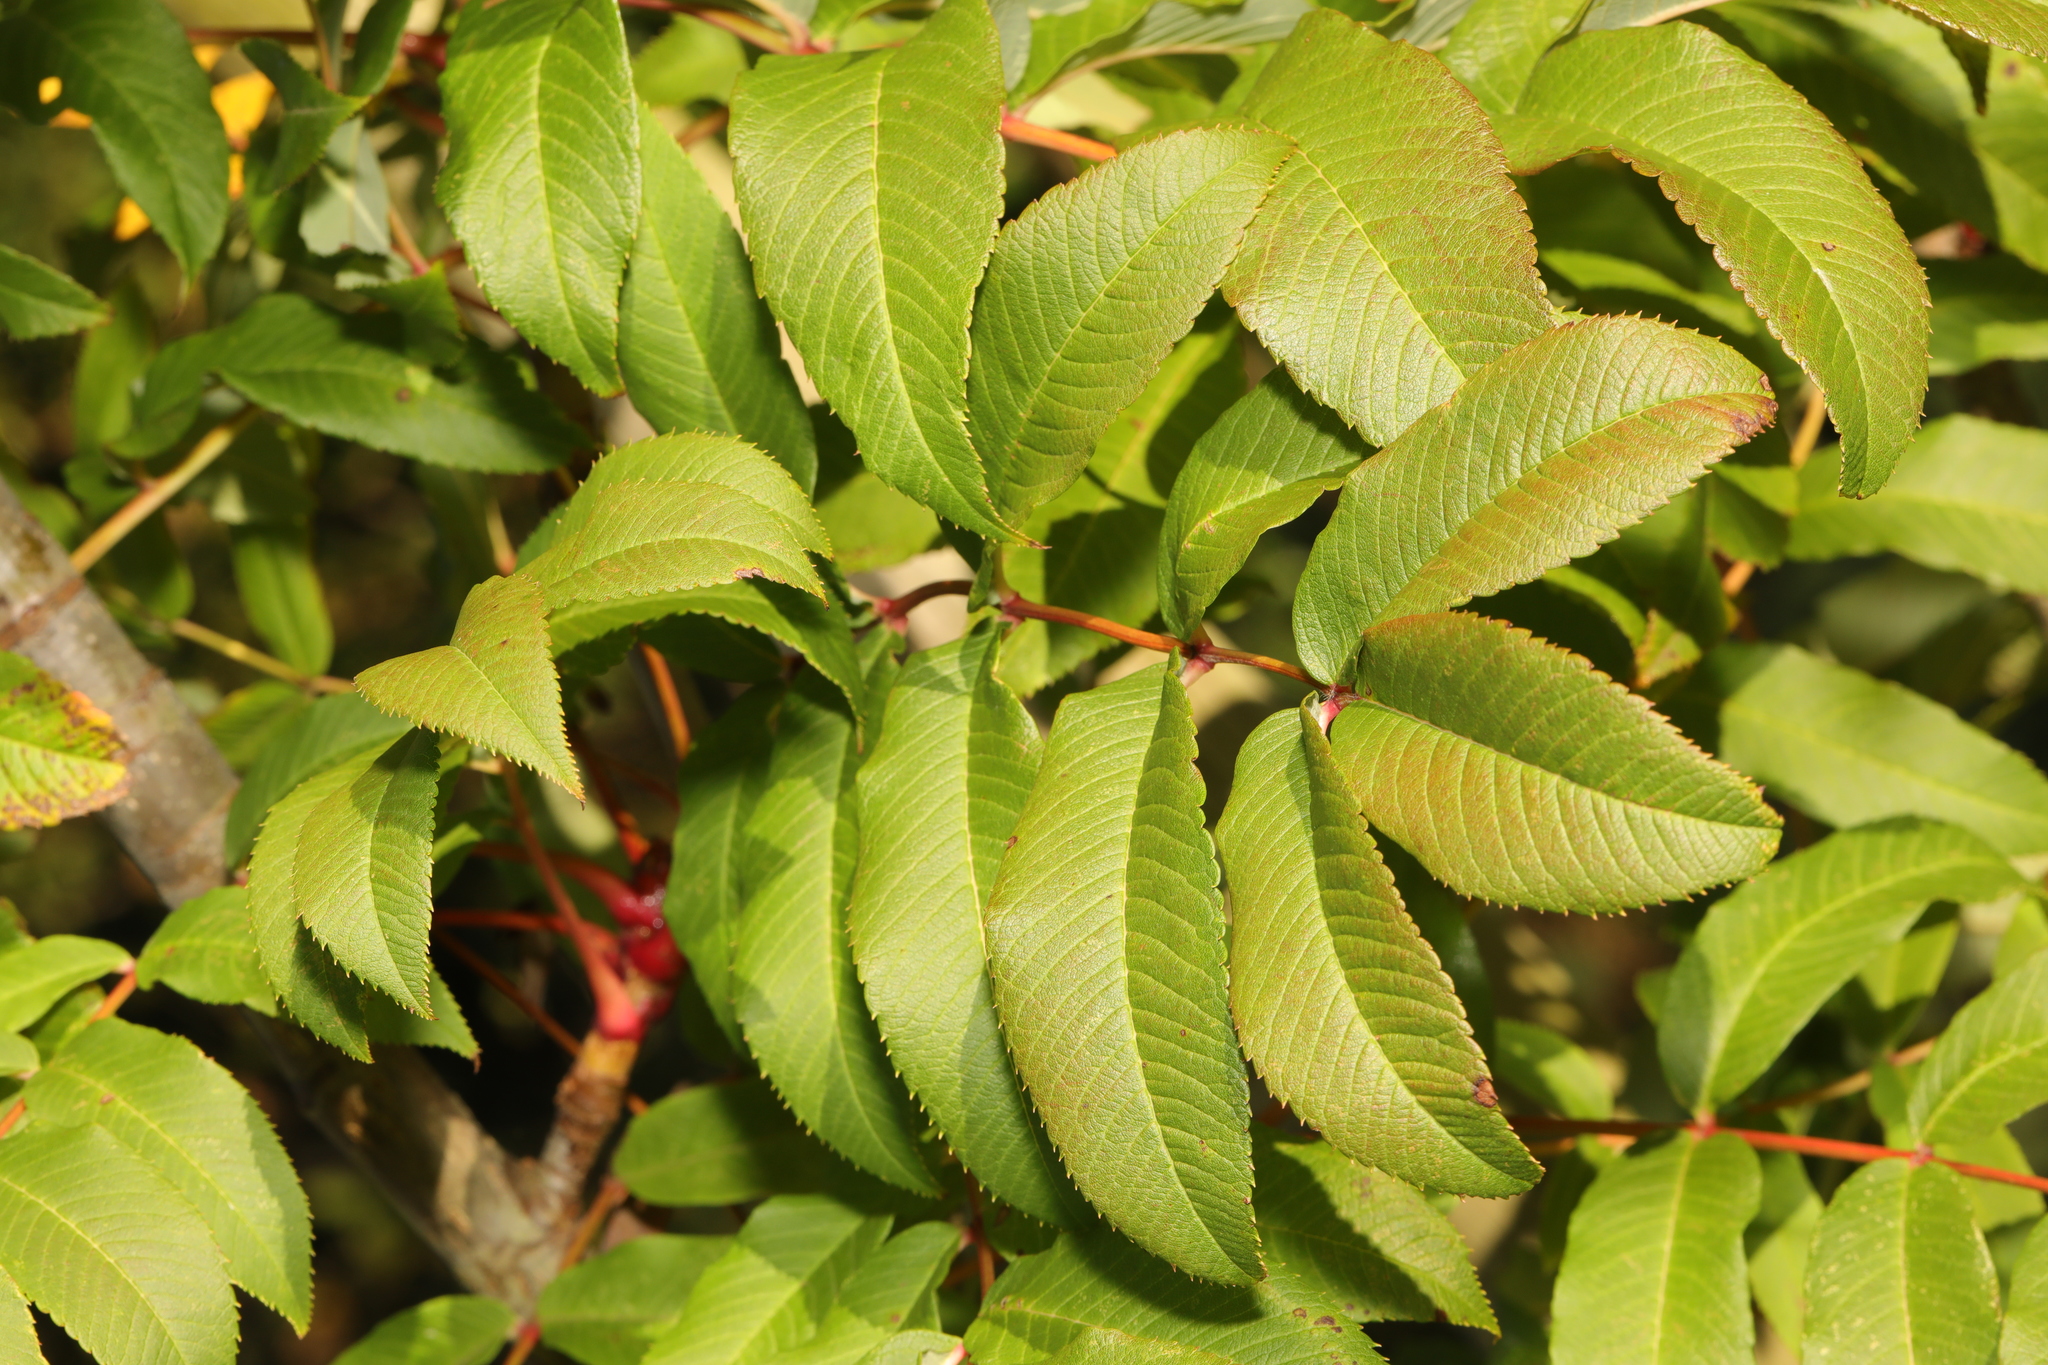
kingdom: Plantae
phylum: Tracheophyta
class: Magnoliopsida
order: Rosales
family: Rosaceae
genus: Sorbus
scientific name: Sorbus sargentiana
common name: Sargent's rowan
